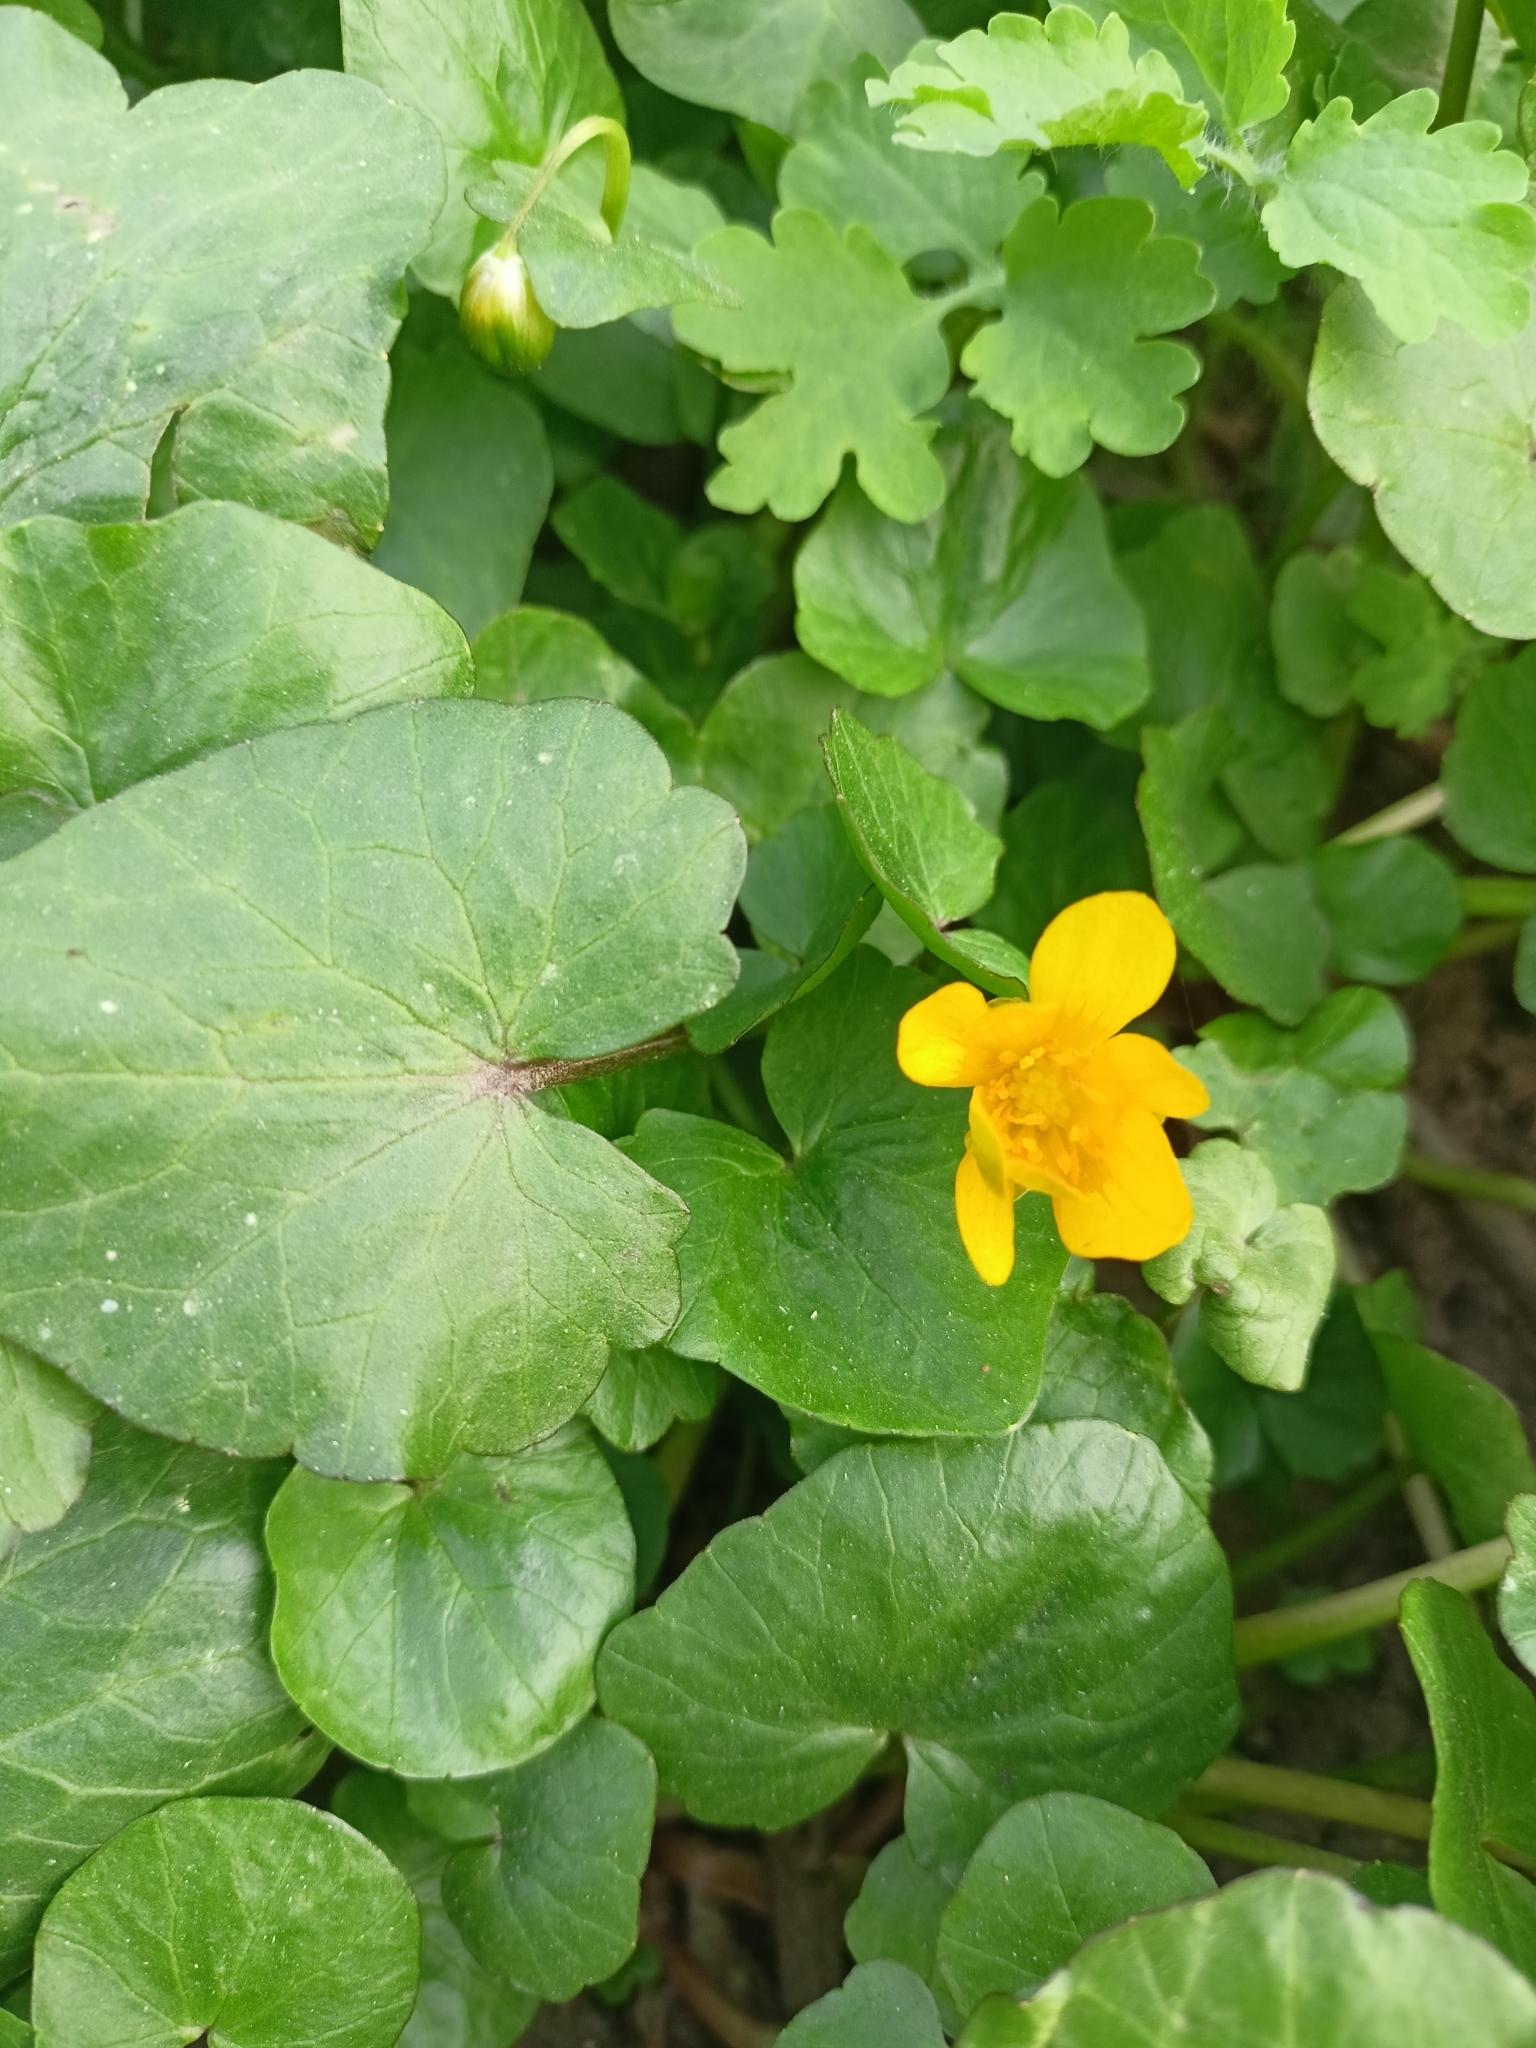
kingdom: Plantae
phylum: Tracheophyta
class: Magnoliopsida
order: Ranunculales
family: Ranunculaceae
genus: Ficaria
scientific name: Ficaria verna
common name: Lesser celandine
